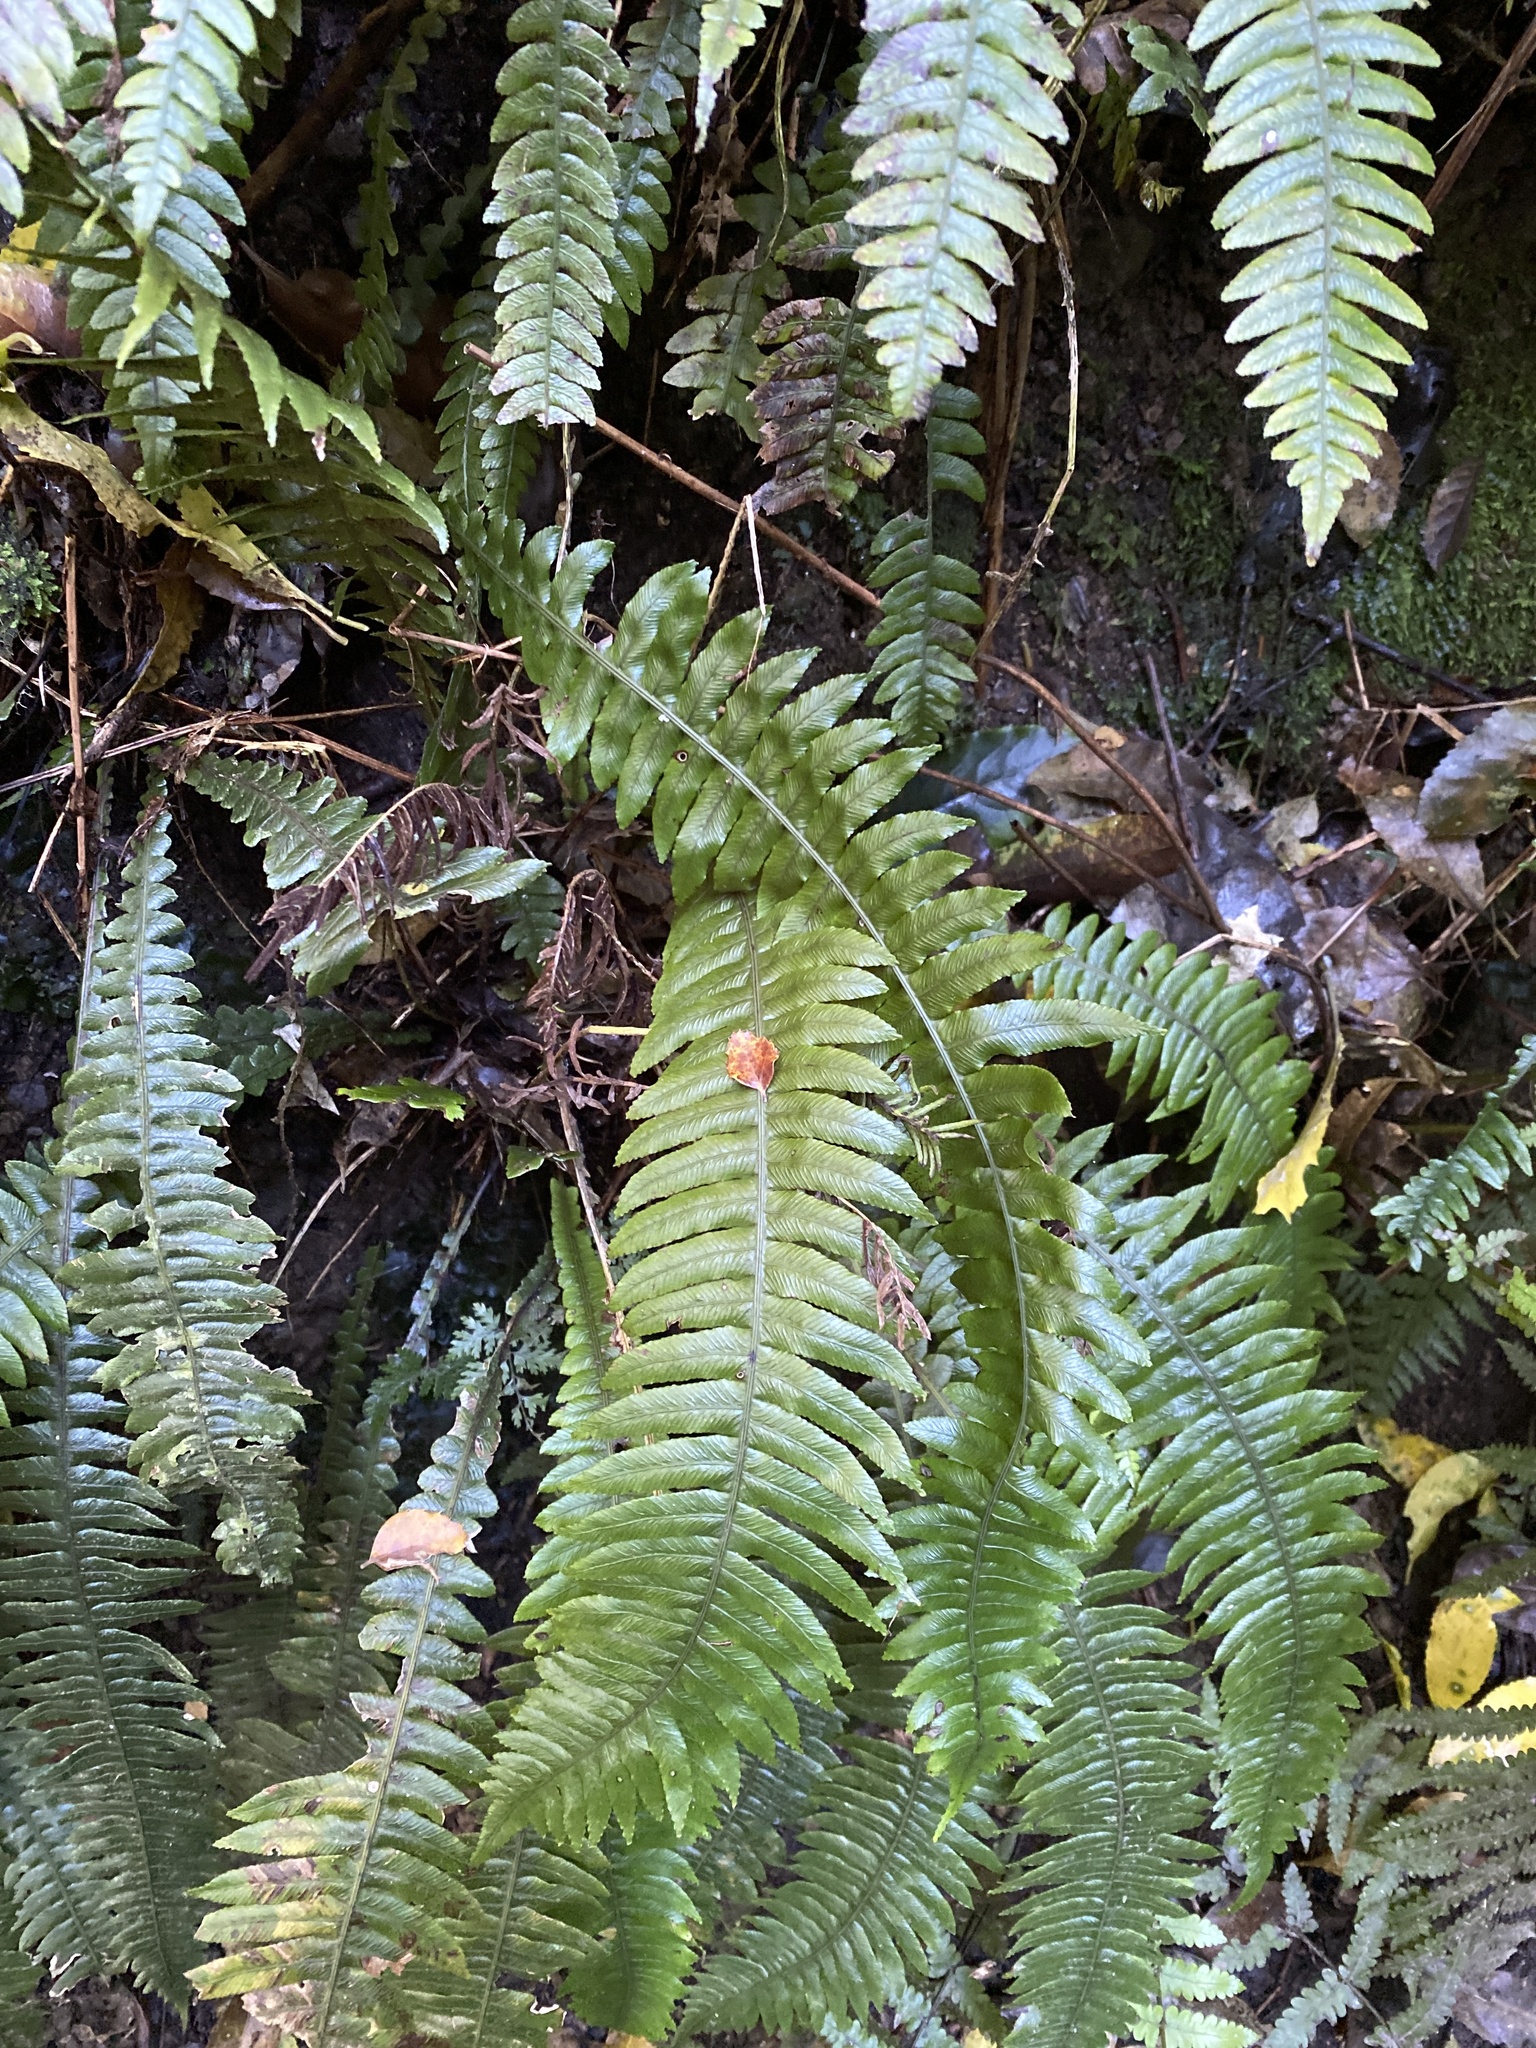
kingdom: Plantae
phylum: Tracheophyta
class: Polypodiopsida
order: Polypodiales
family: Blechnaceae
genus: Austroblechnum
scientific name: Austroblechnum lanceolatum
